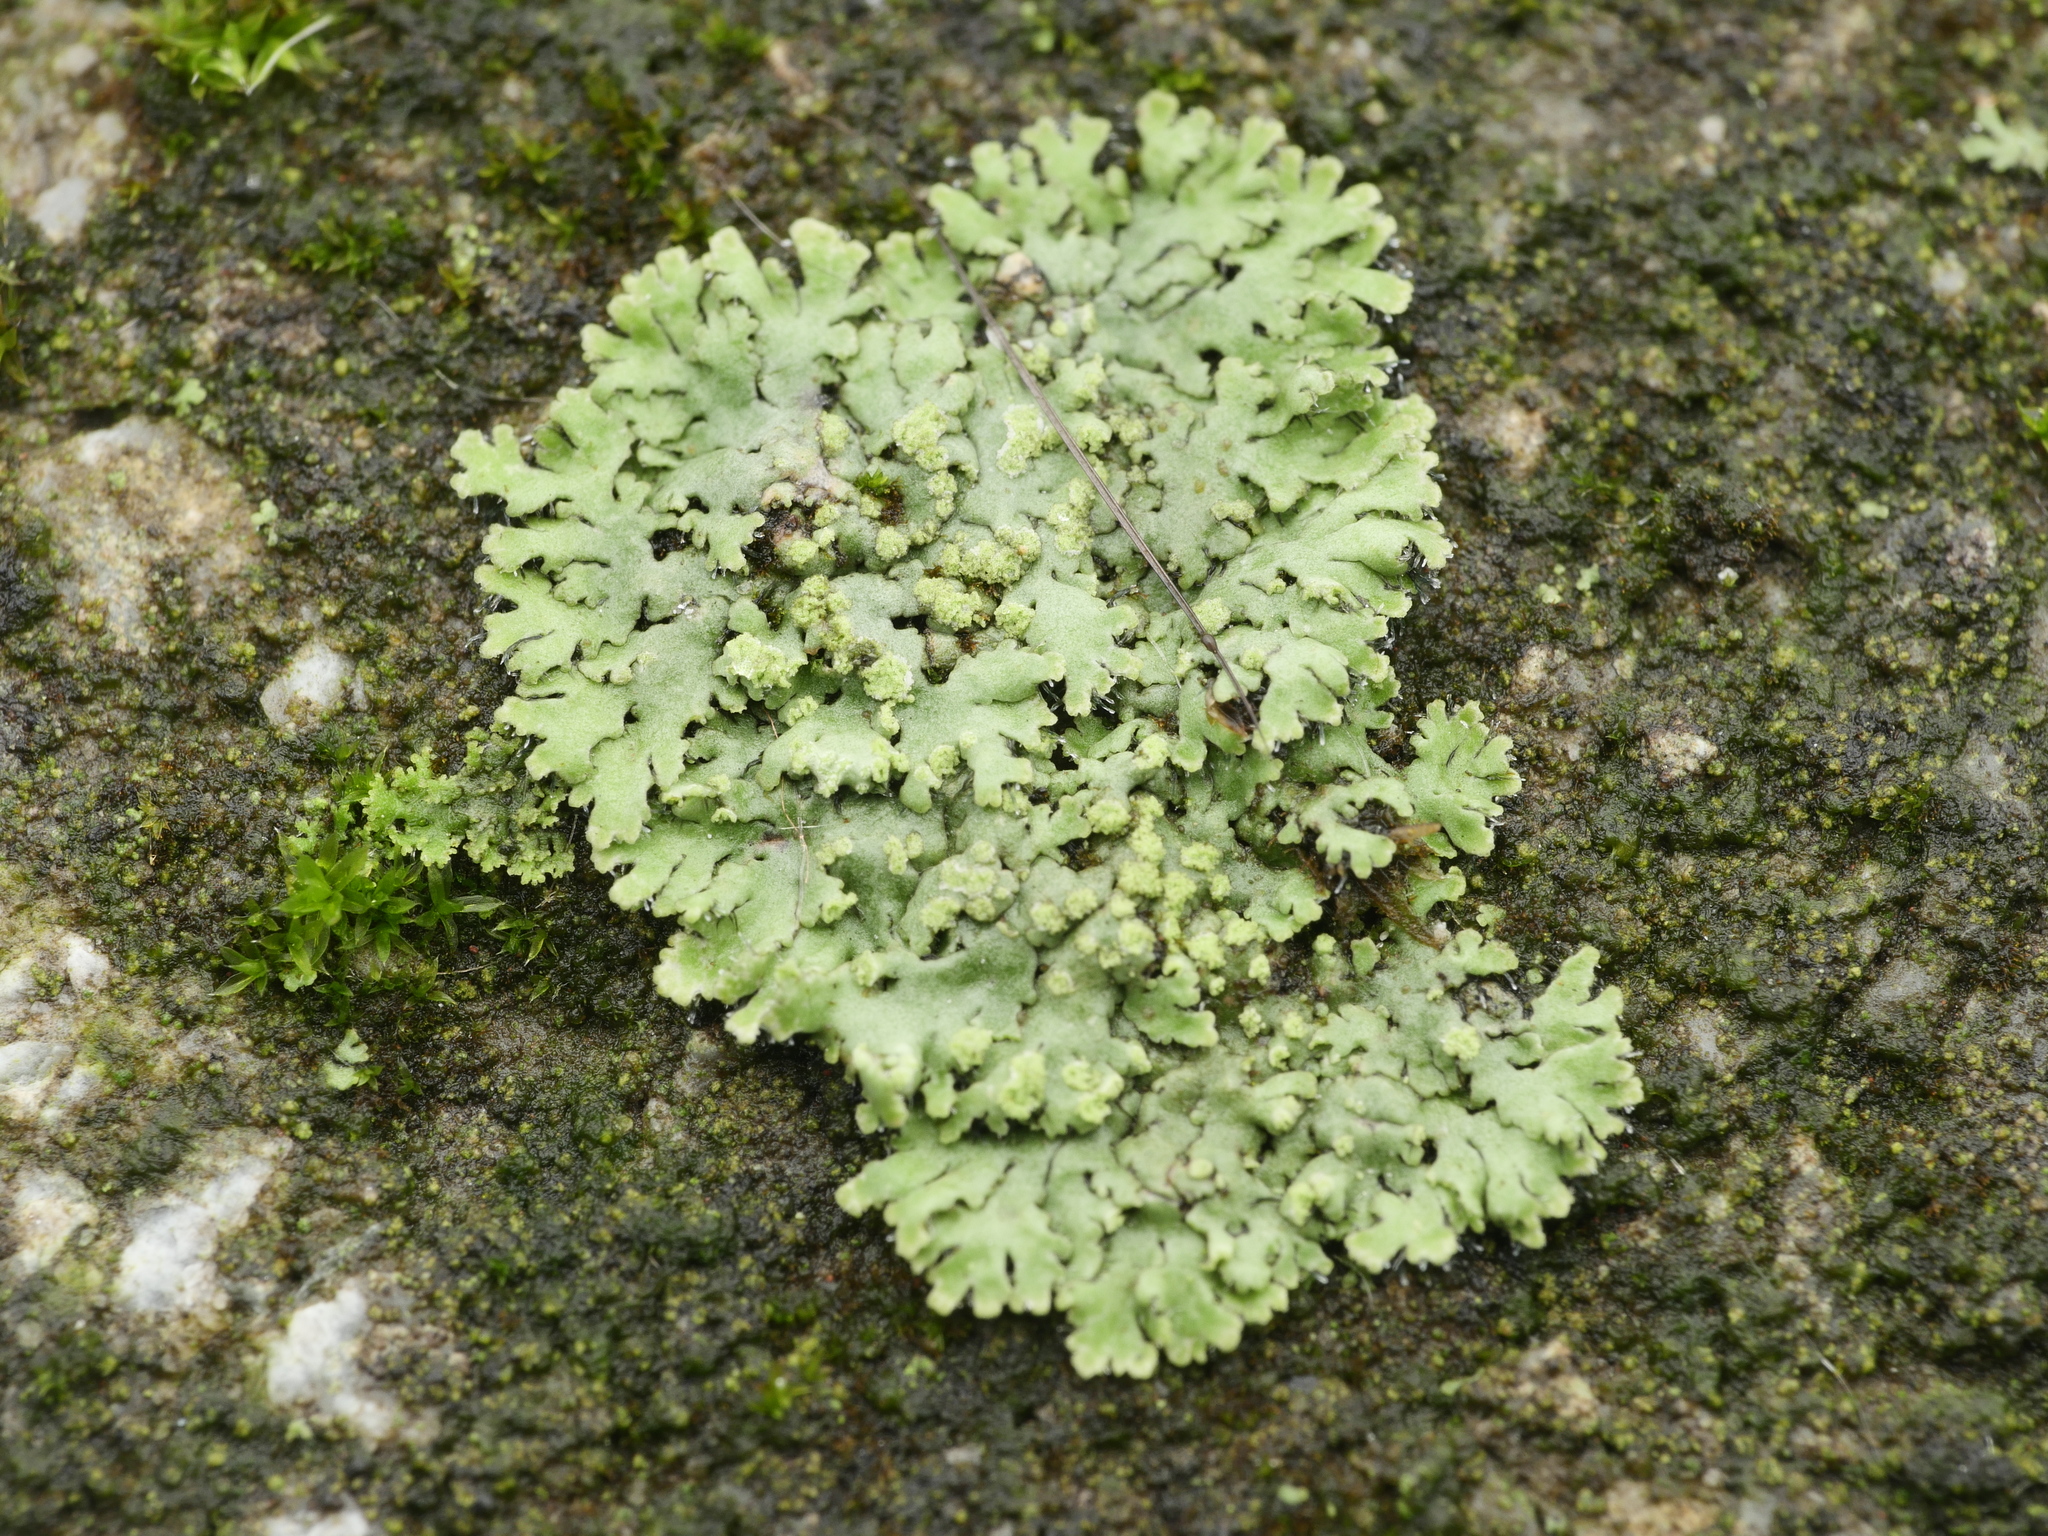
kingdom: Fungi
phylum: Ascomycota
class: Lecanoromycetes
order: Caliciales
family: Physciaceae
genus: Phaeophyscia
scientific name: Phaeophyscia orbicularis
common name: Mealy shadow lichen
